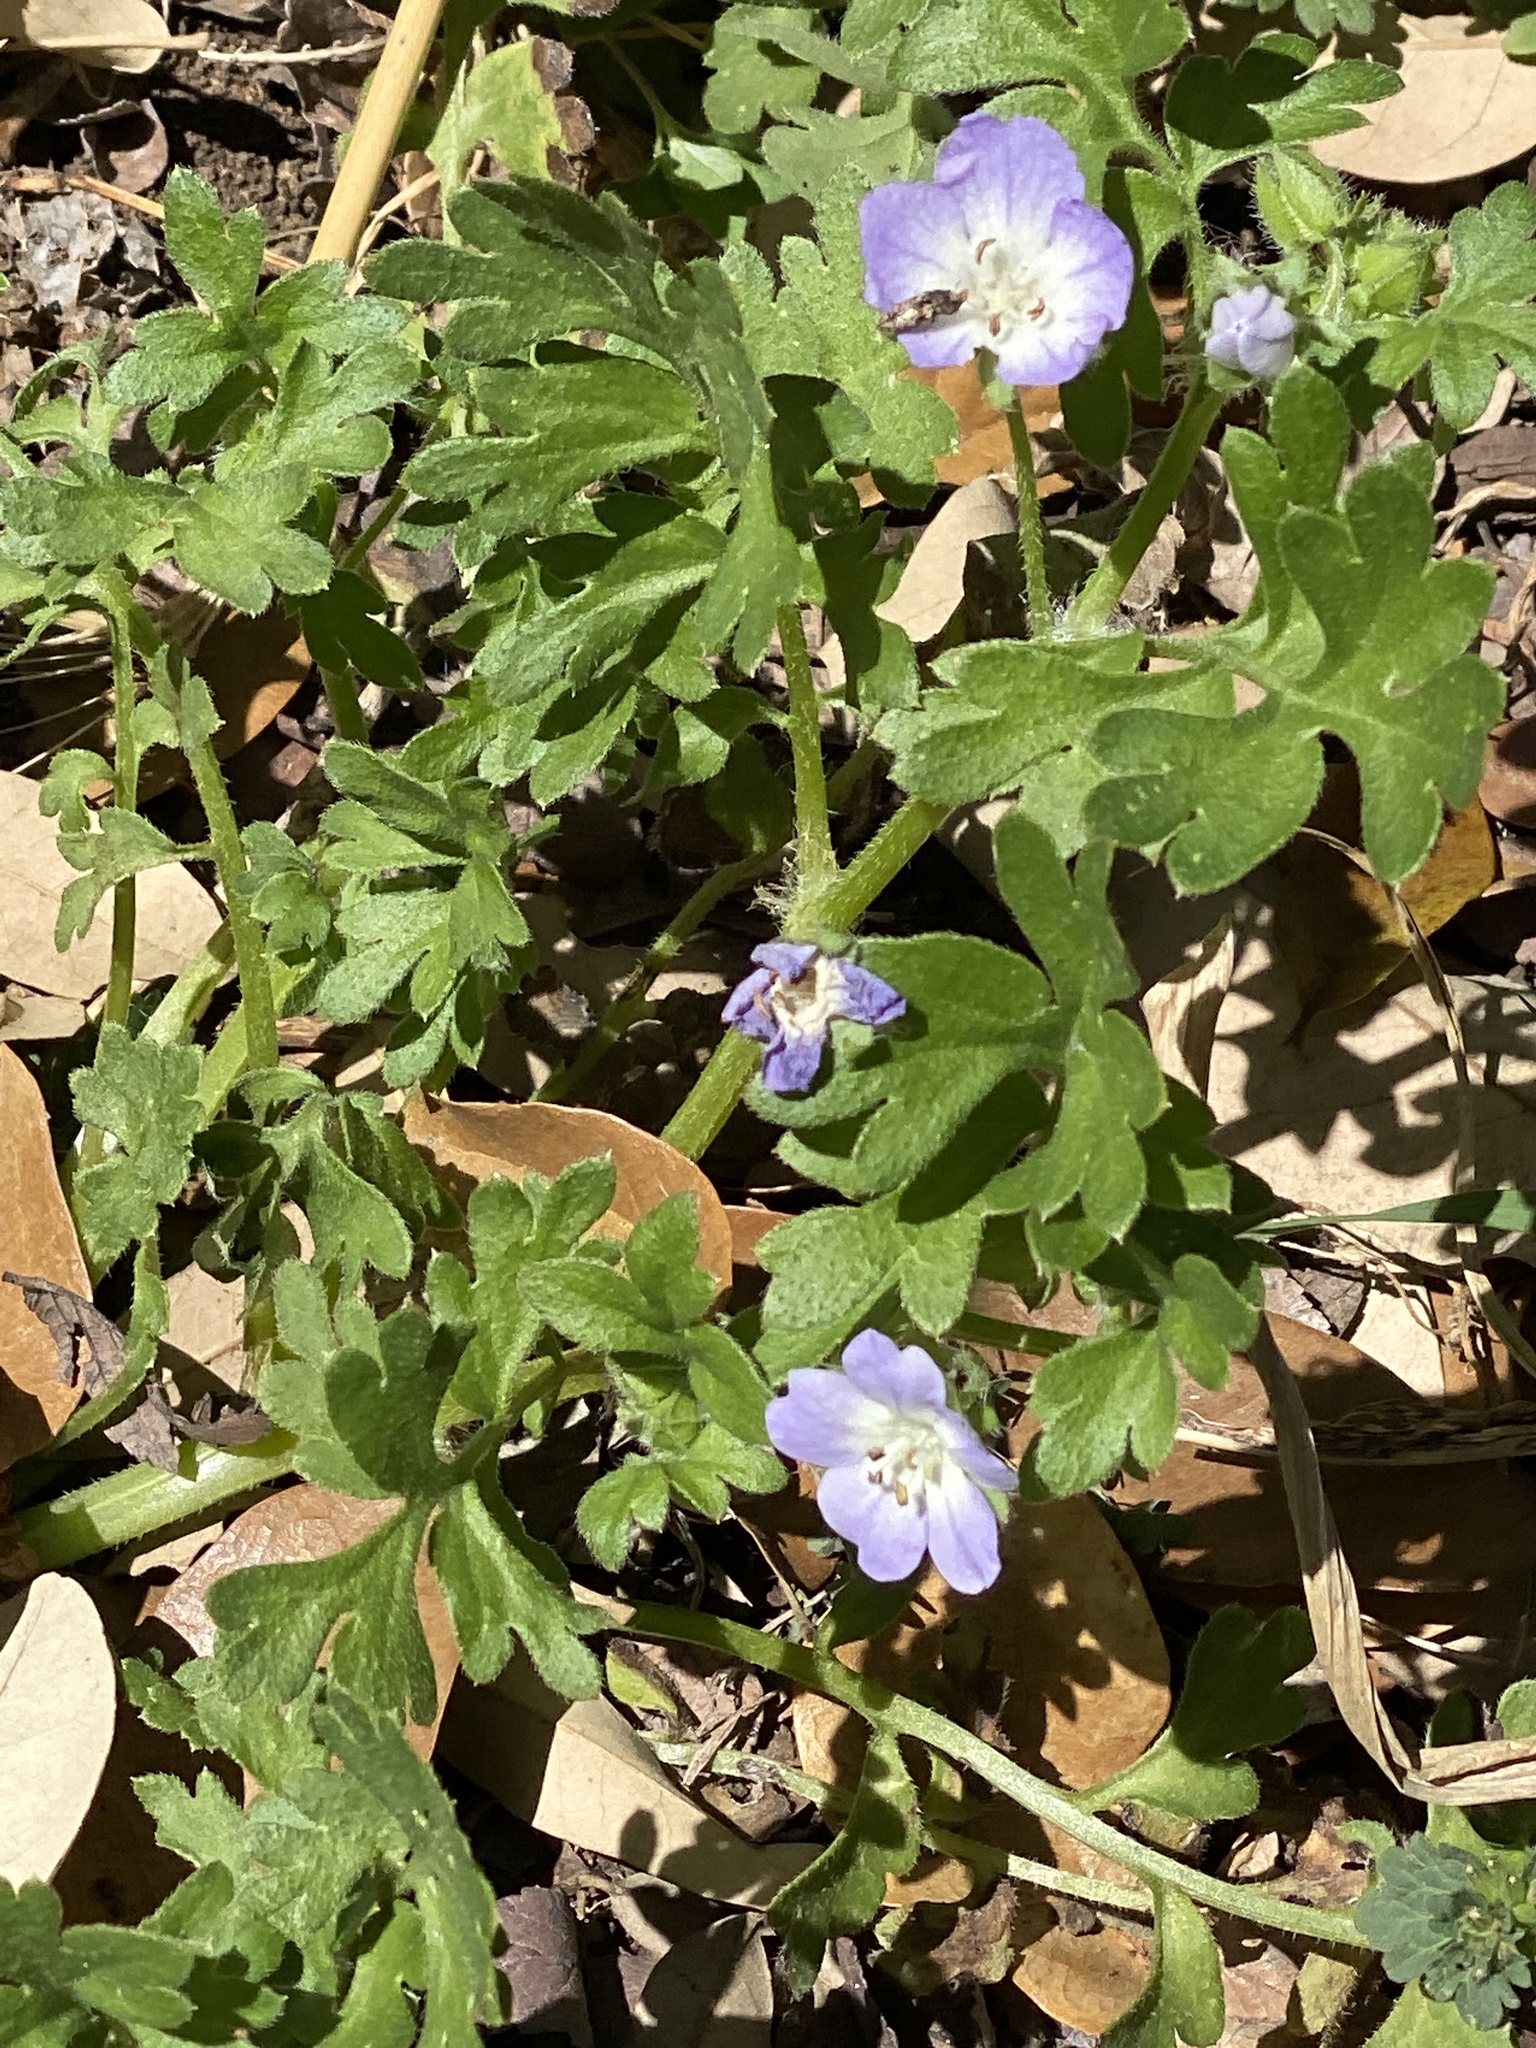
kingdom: Plantae
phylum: Tracheophyta
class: Magnoliopsida
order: Boraginales
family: Hydrophyllaceae
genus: Nemophila
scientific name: Nemophila phacelioides
